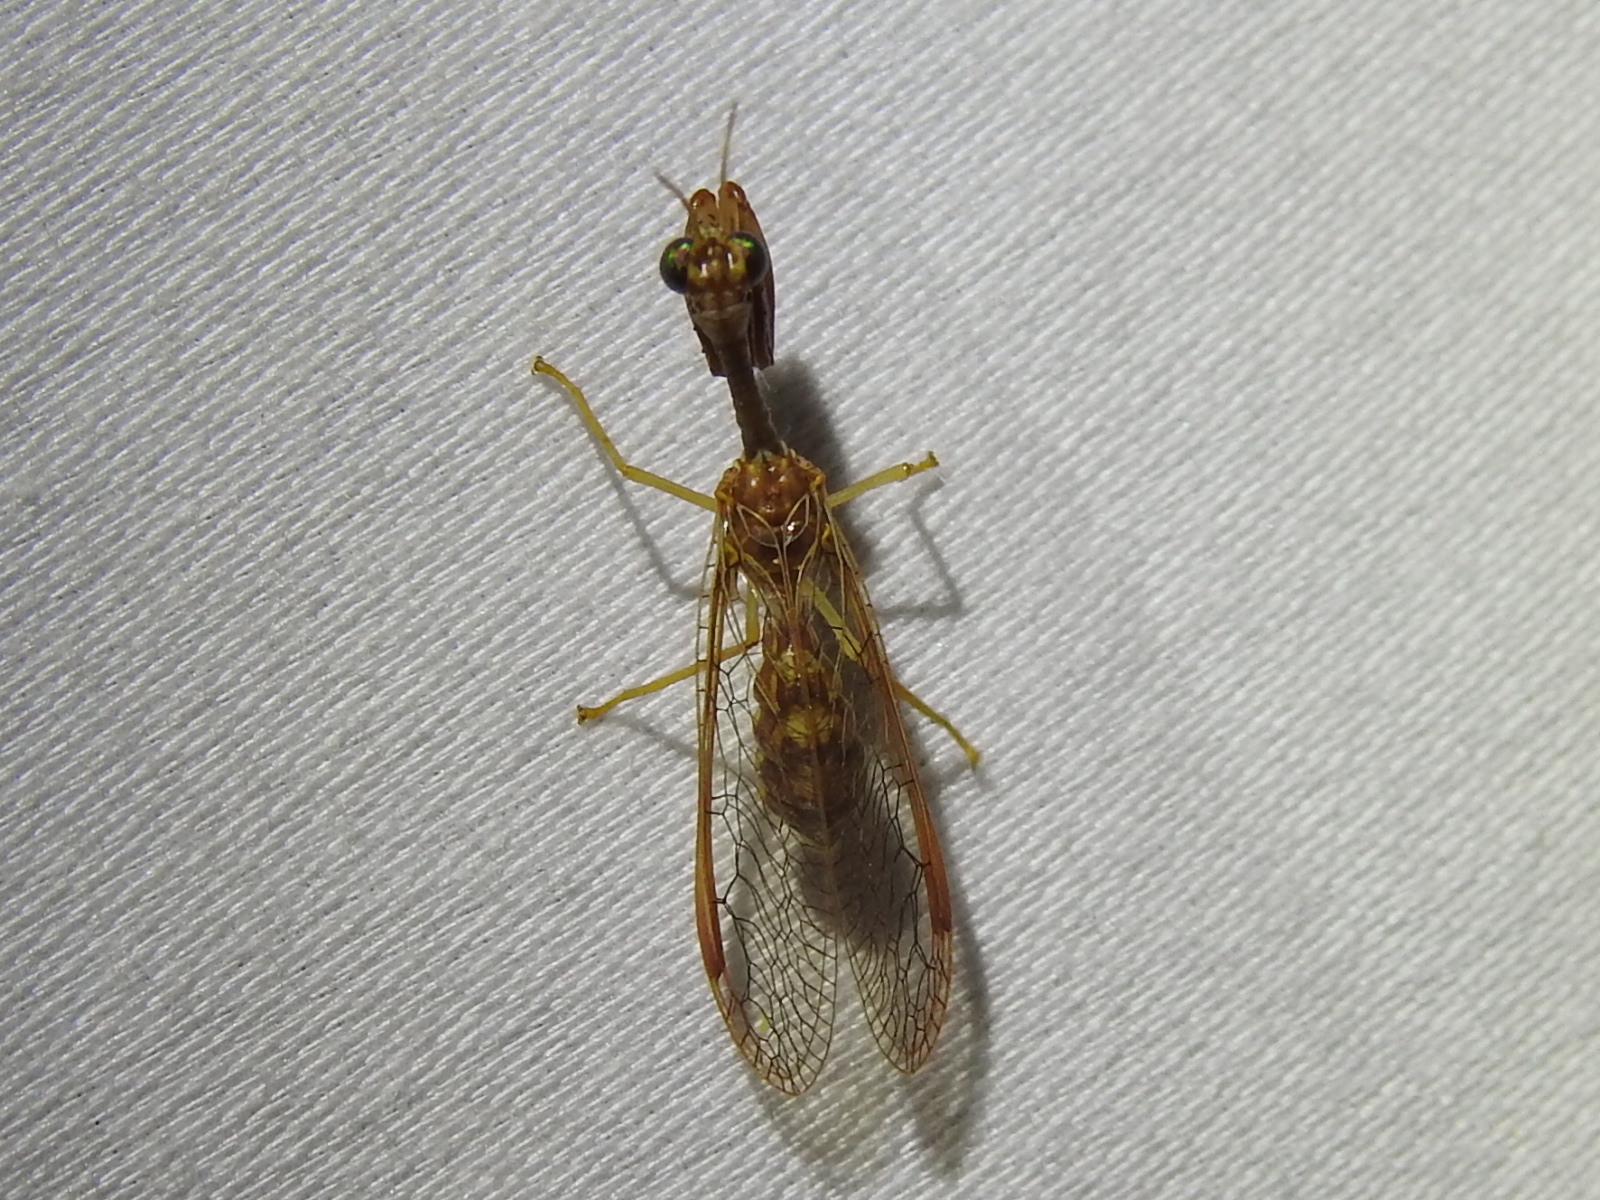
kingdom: Animalia
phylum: Arthropoda
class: Insecta
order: Neuroptera
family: Mantispidae
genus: Dicromantispa
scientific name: Dicromantispa sayi
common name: Say's mantidfly
